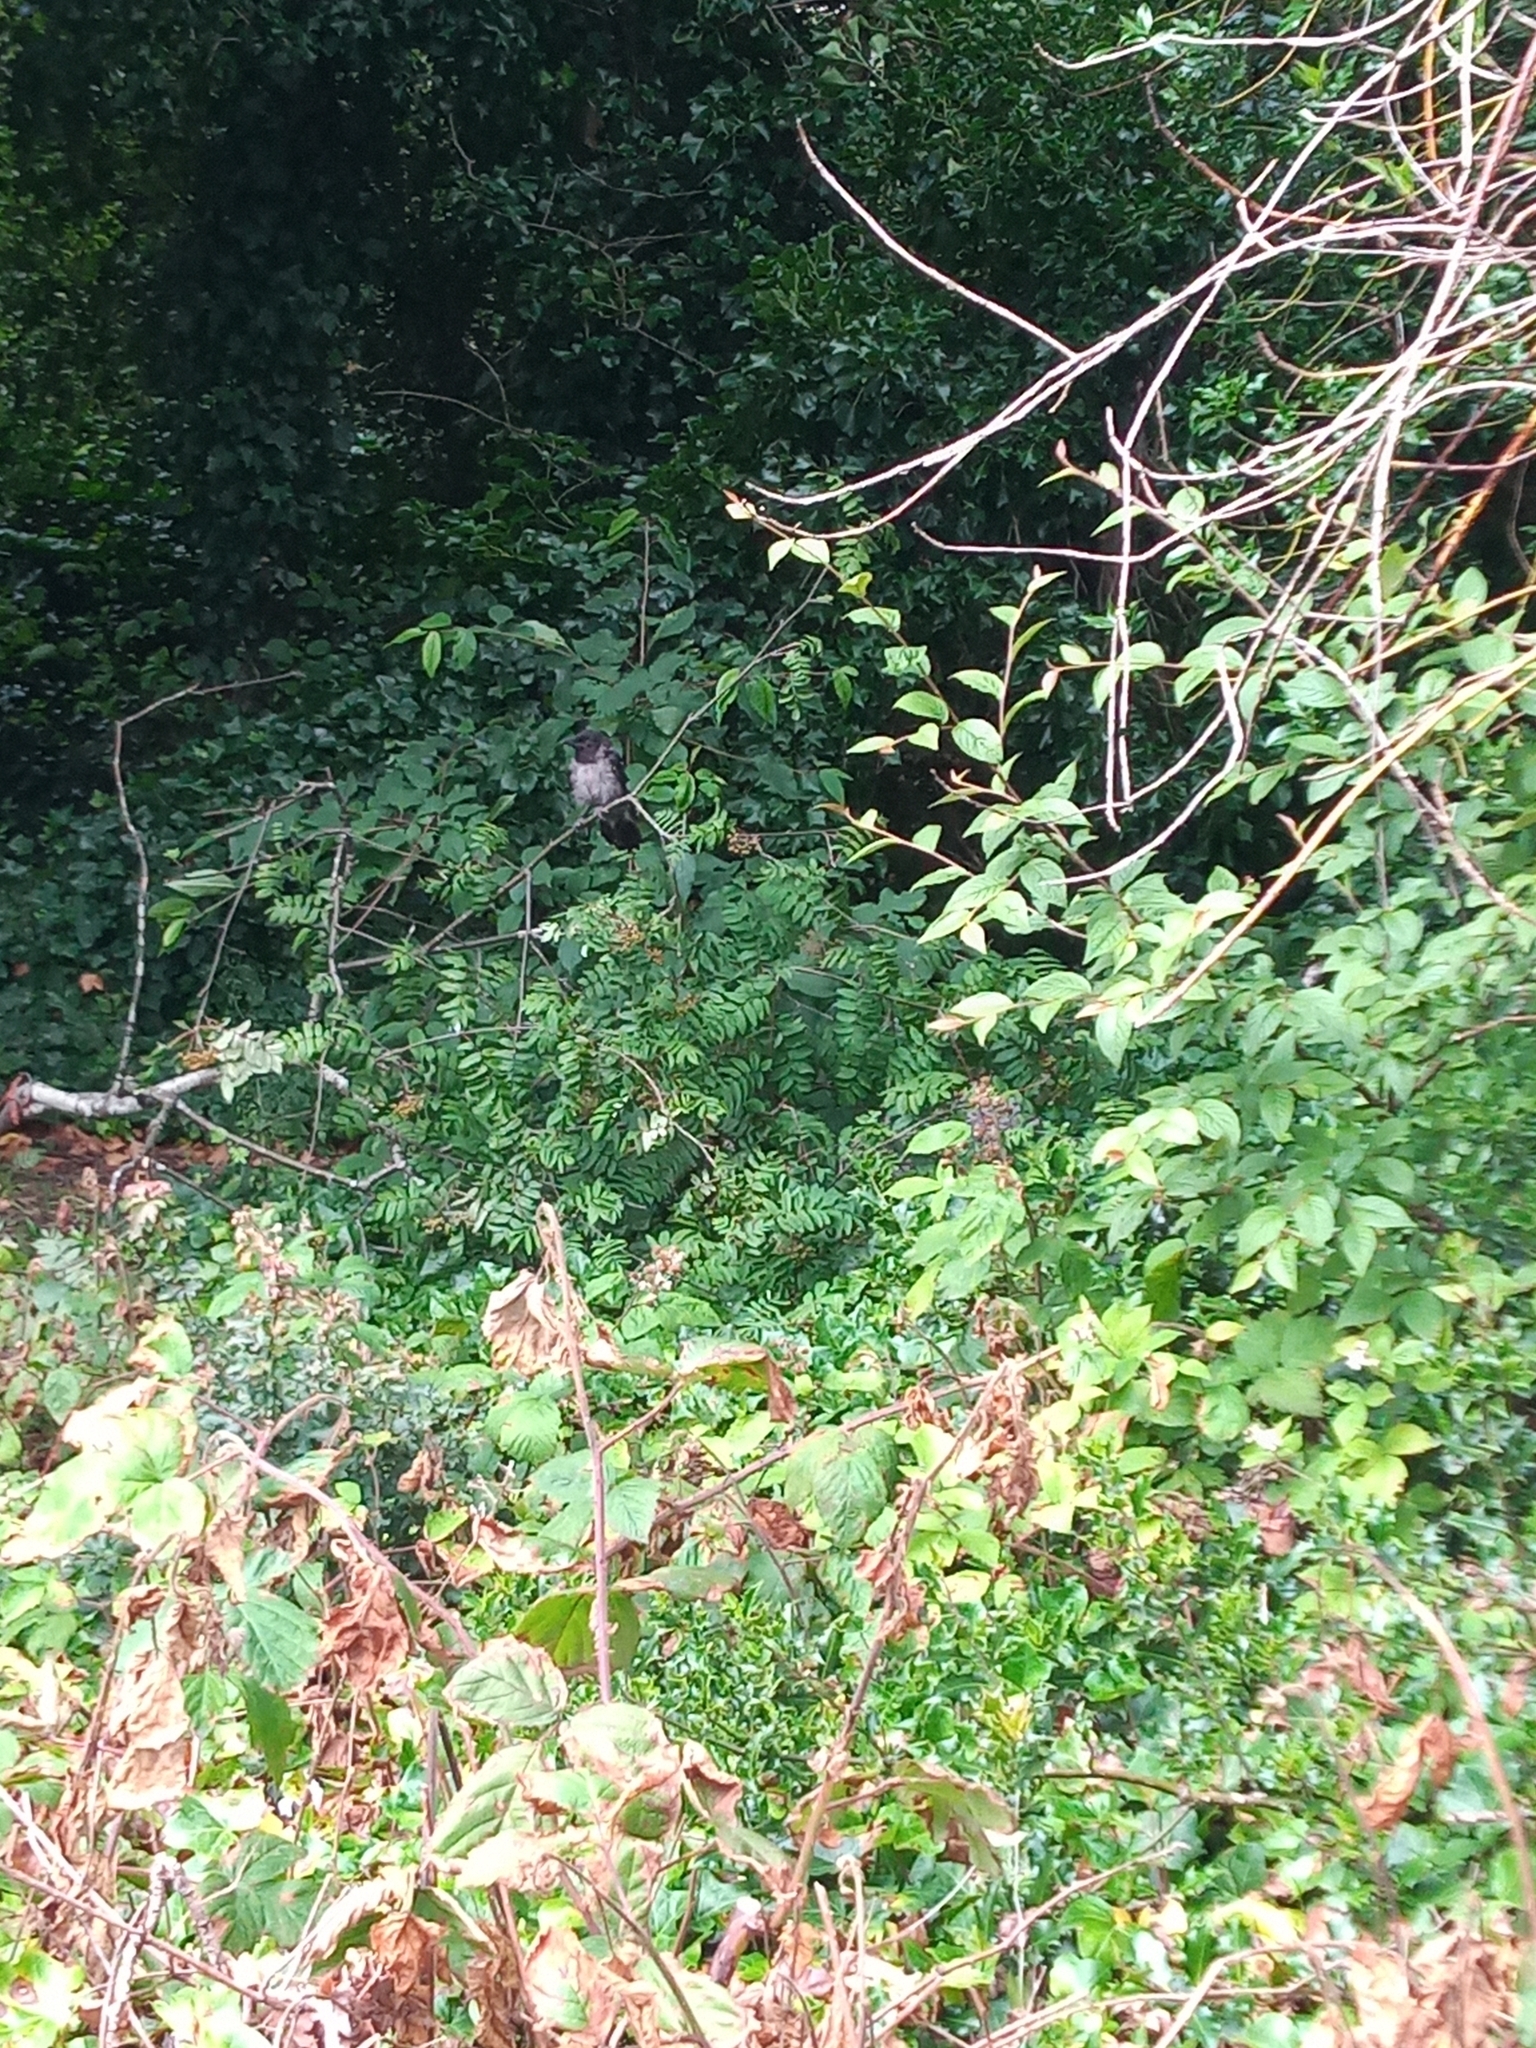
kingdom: Animalia
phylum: Chordata
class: Aves
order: Passeriformes
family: Corvidae
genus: Corvus
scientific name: Corvus cornix
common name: Hooded crow
